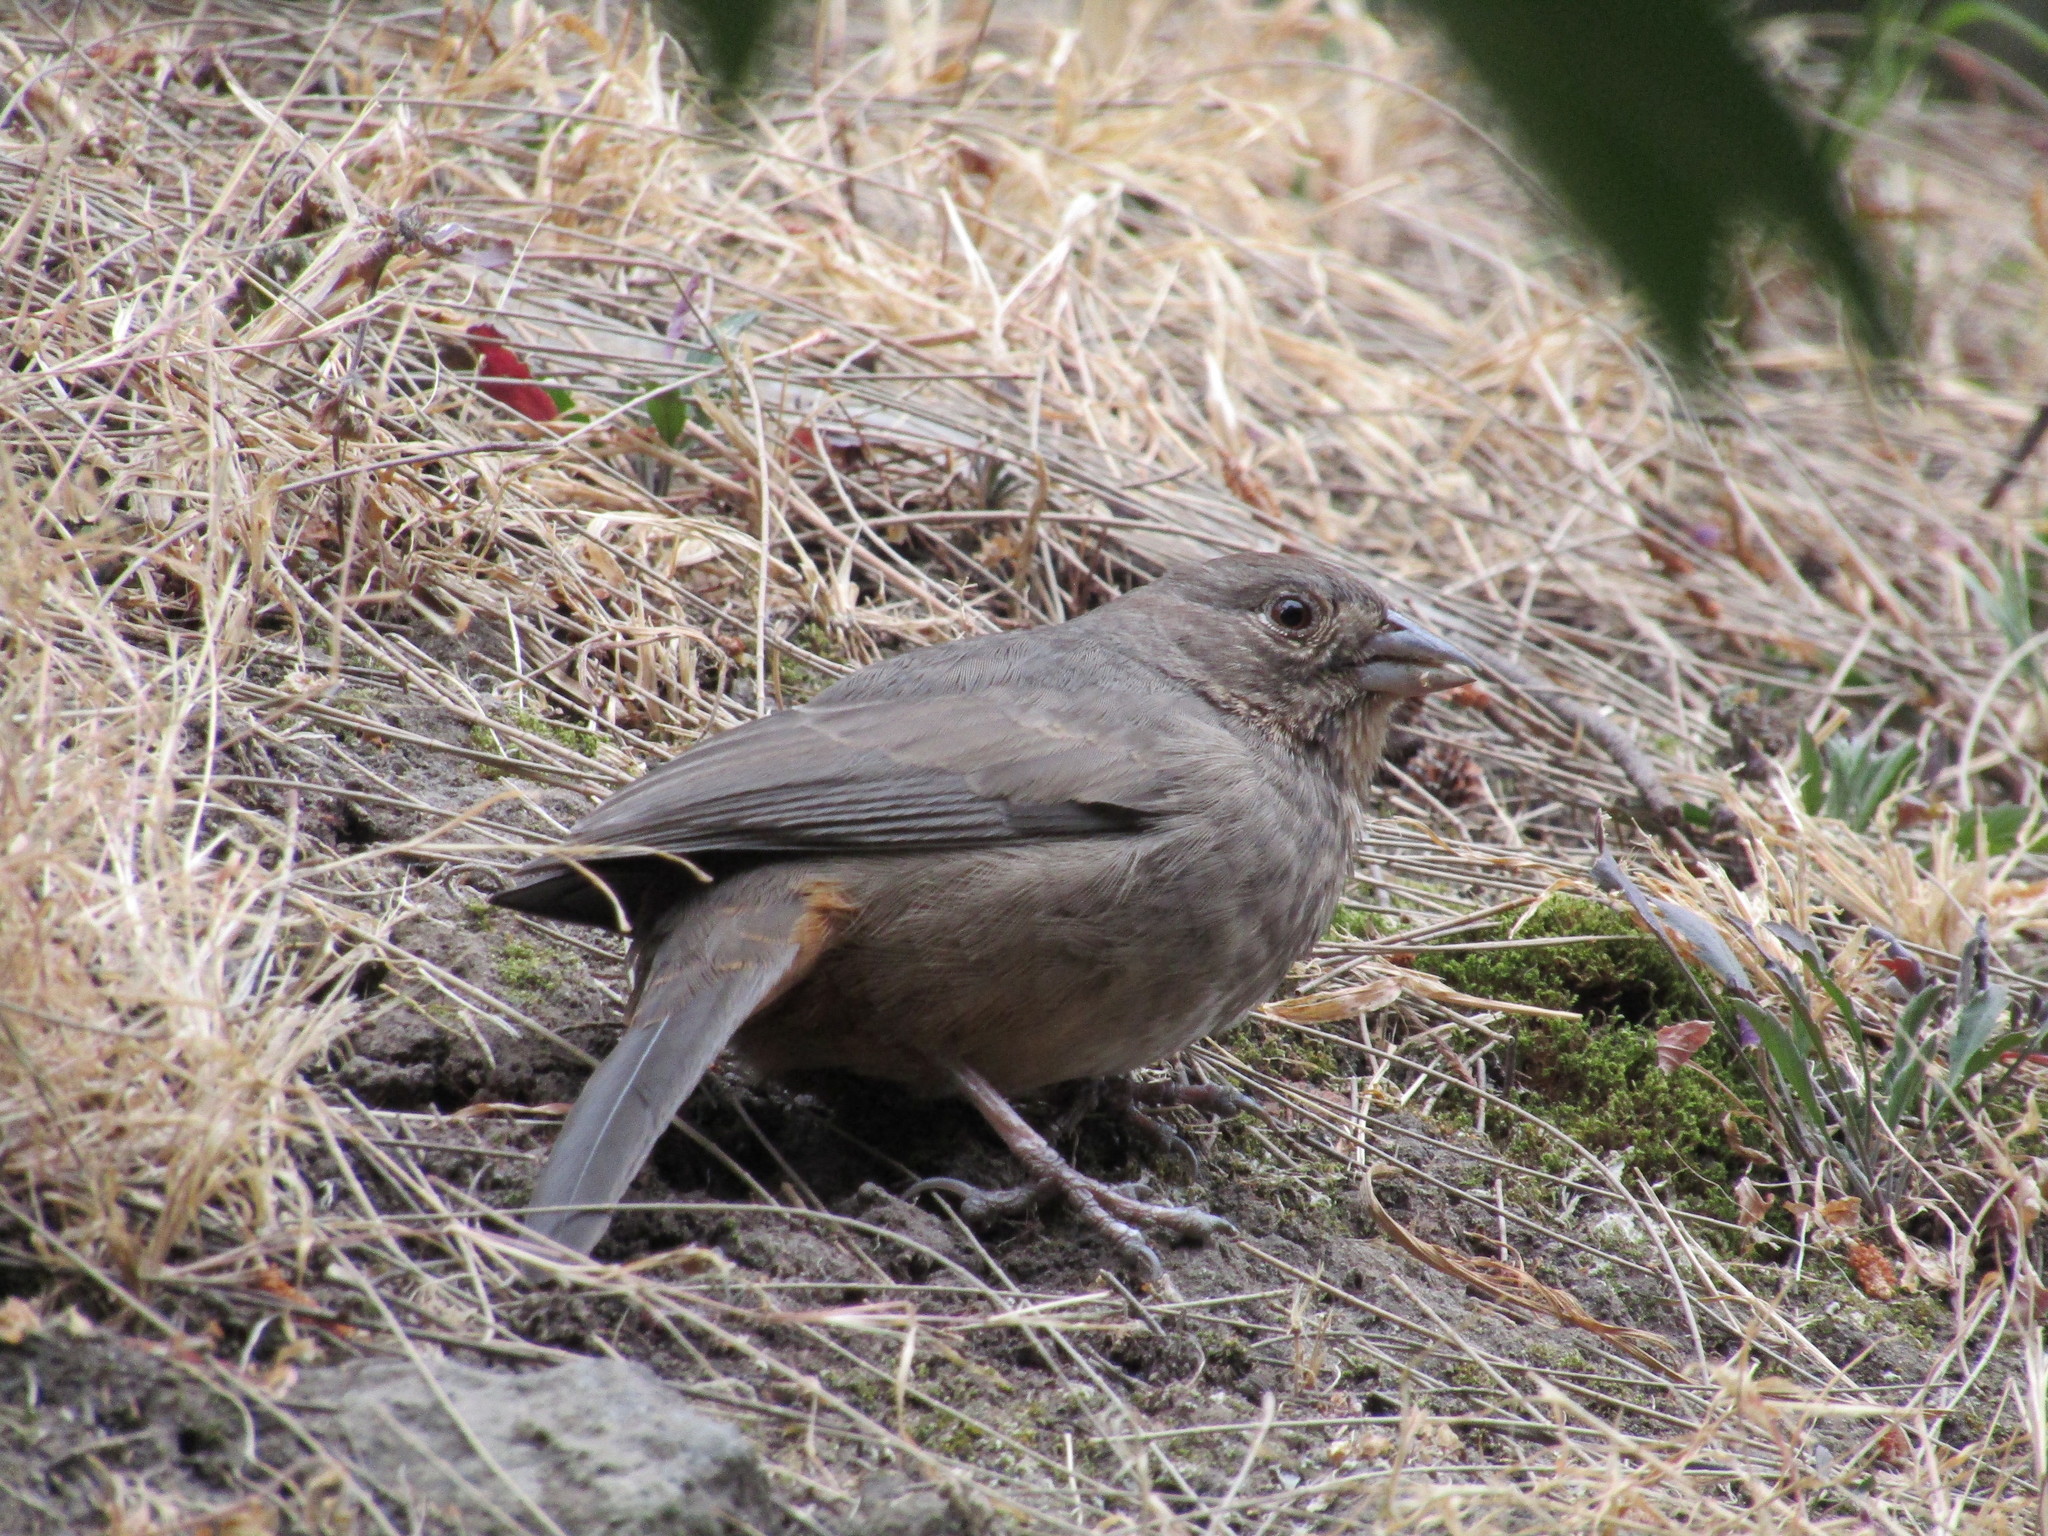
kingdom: Animalia
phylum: Chordata
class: Aves
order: Passeriformes
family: Passerellidae
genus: Melozone
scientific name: Melozone fusca
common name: Canyon towhee
